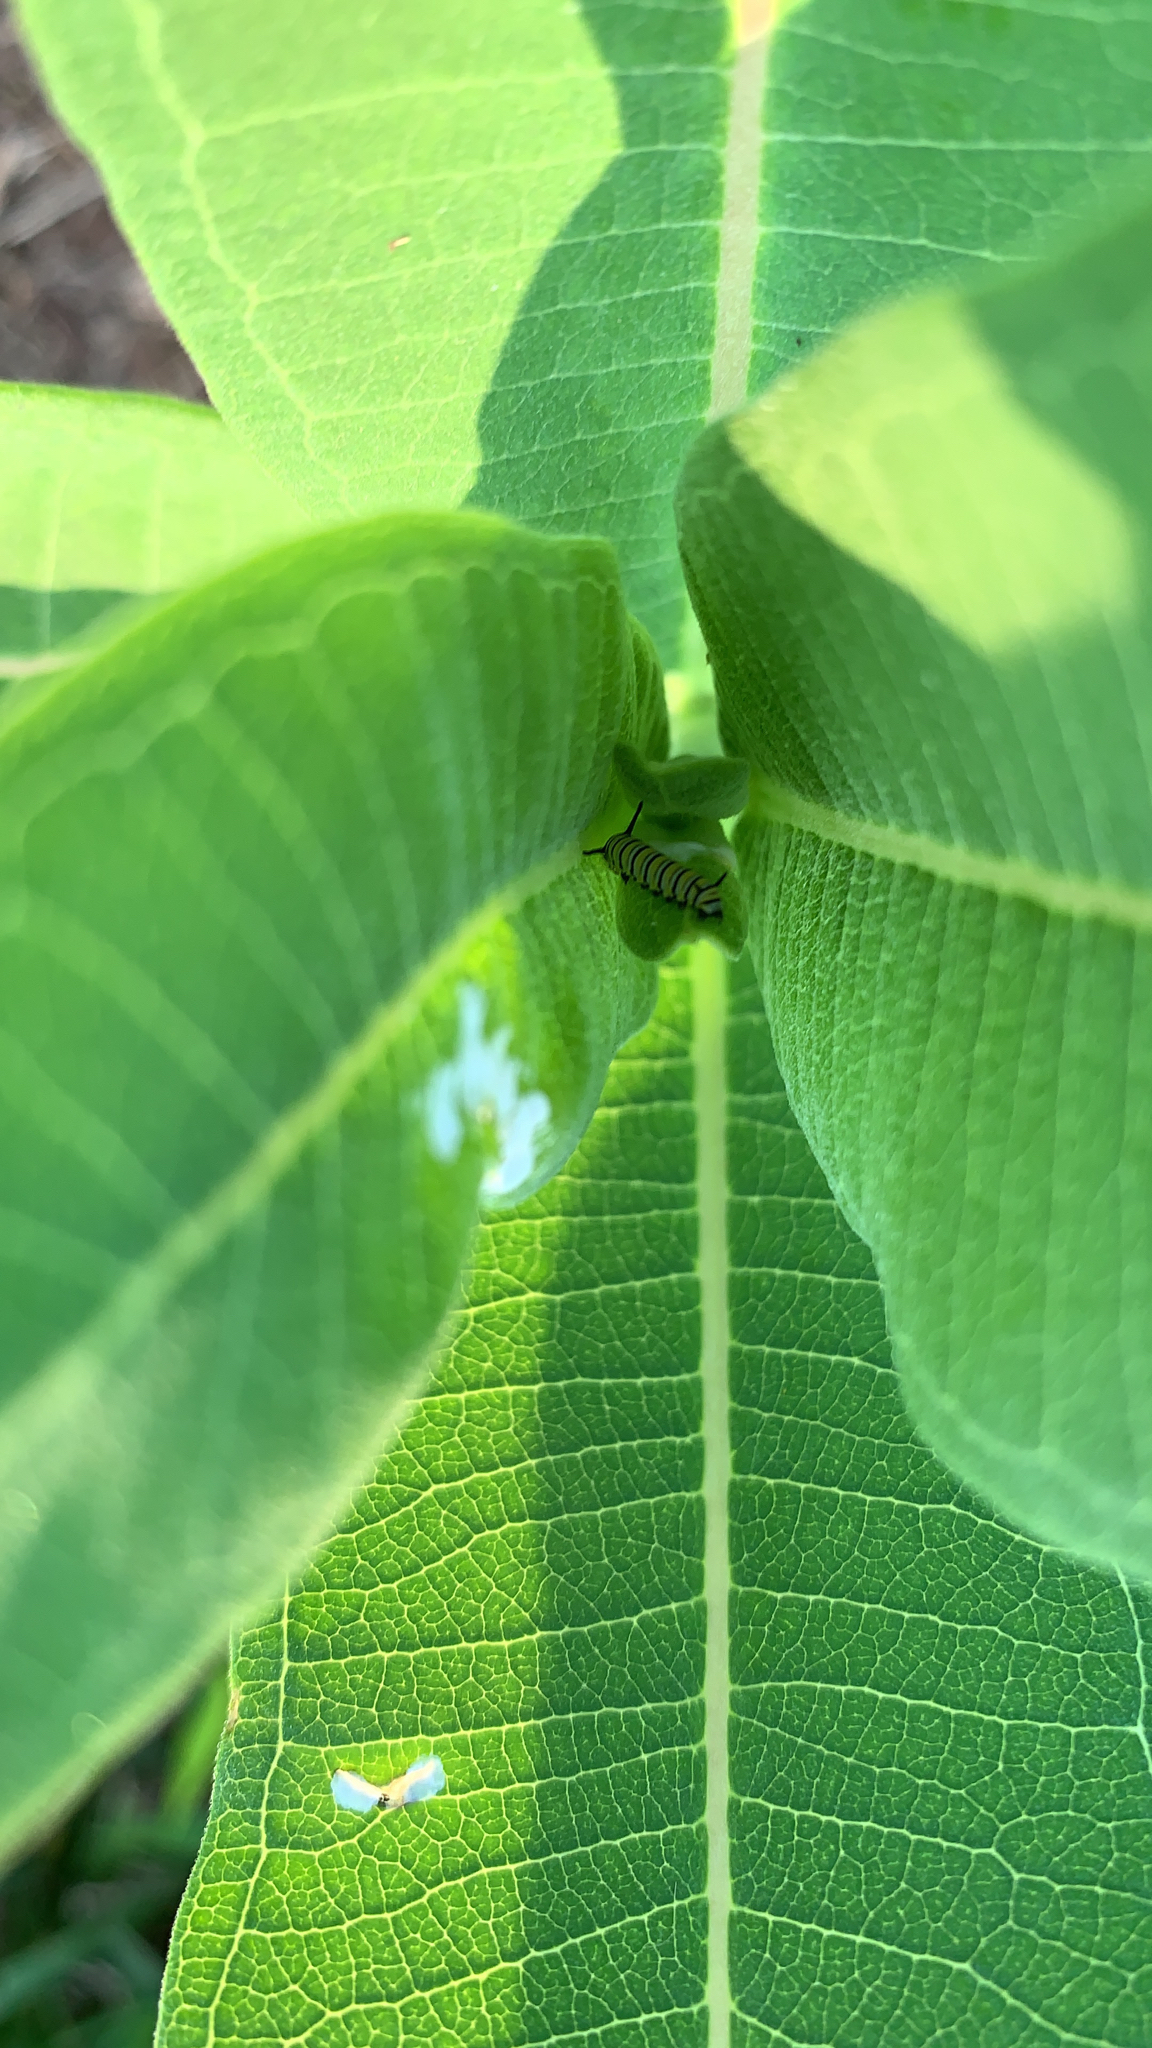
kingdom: Animalia
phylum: Arthropoda
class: Insecta
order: Lepidoptera
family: Nymphalidae
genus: Danaus
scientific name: Danaus plexippus
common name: Monarch
